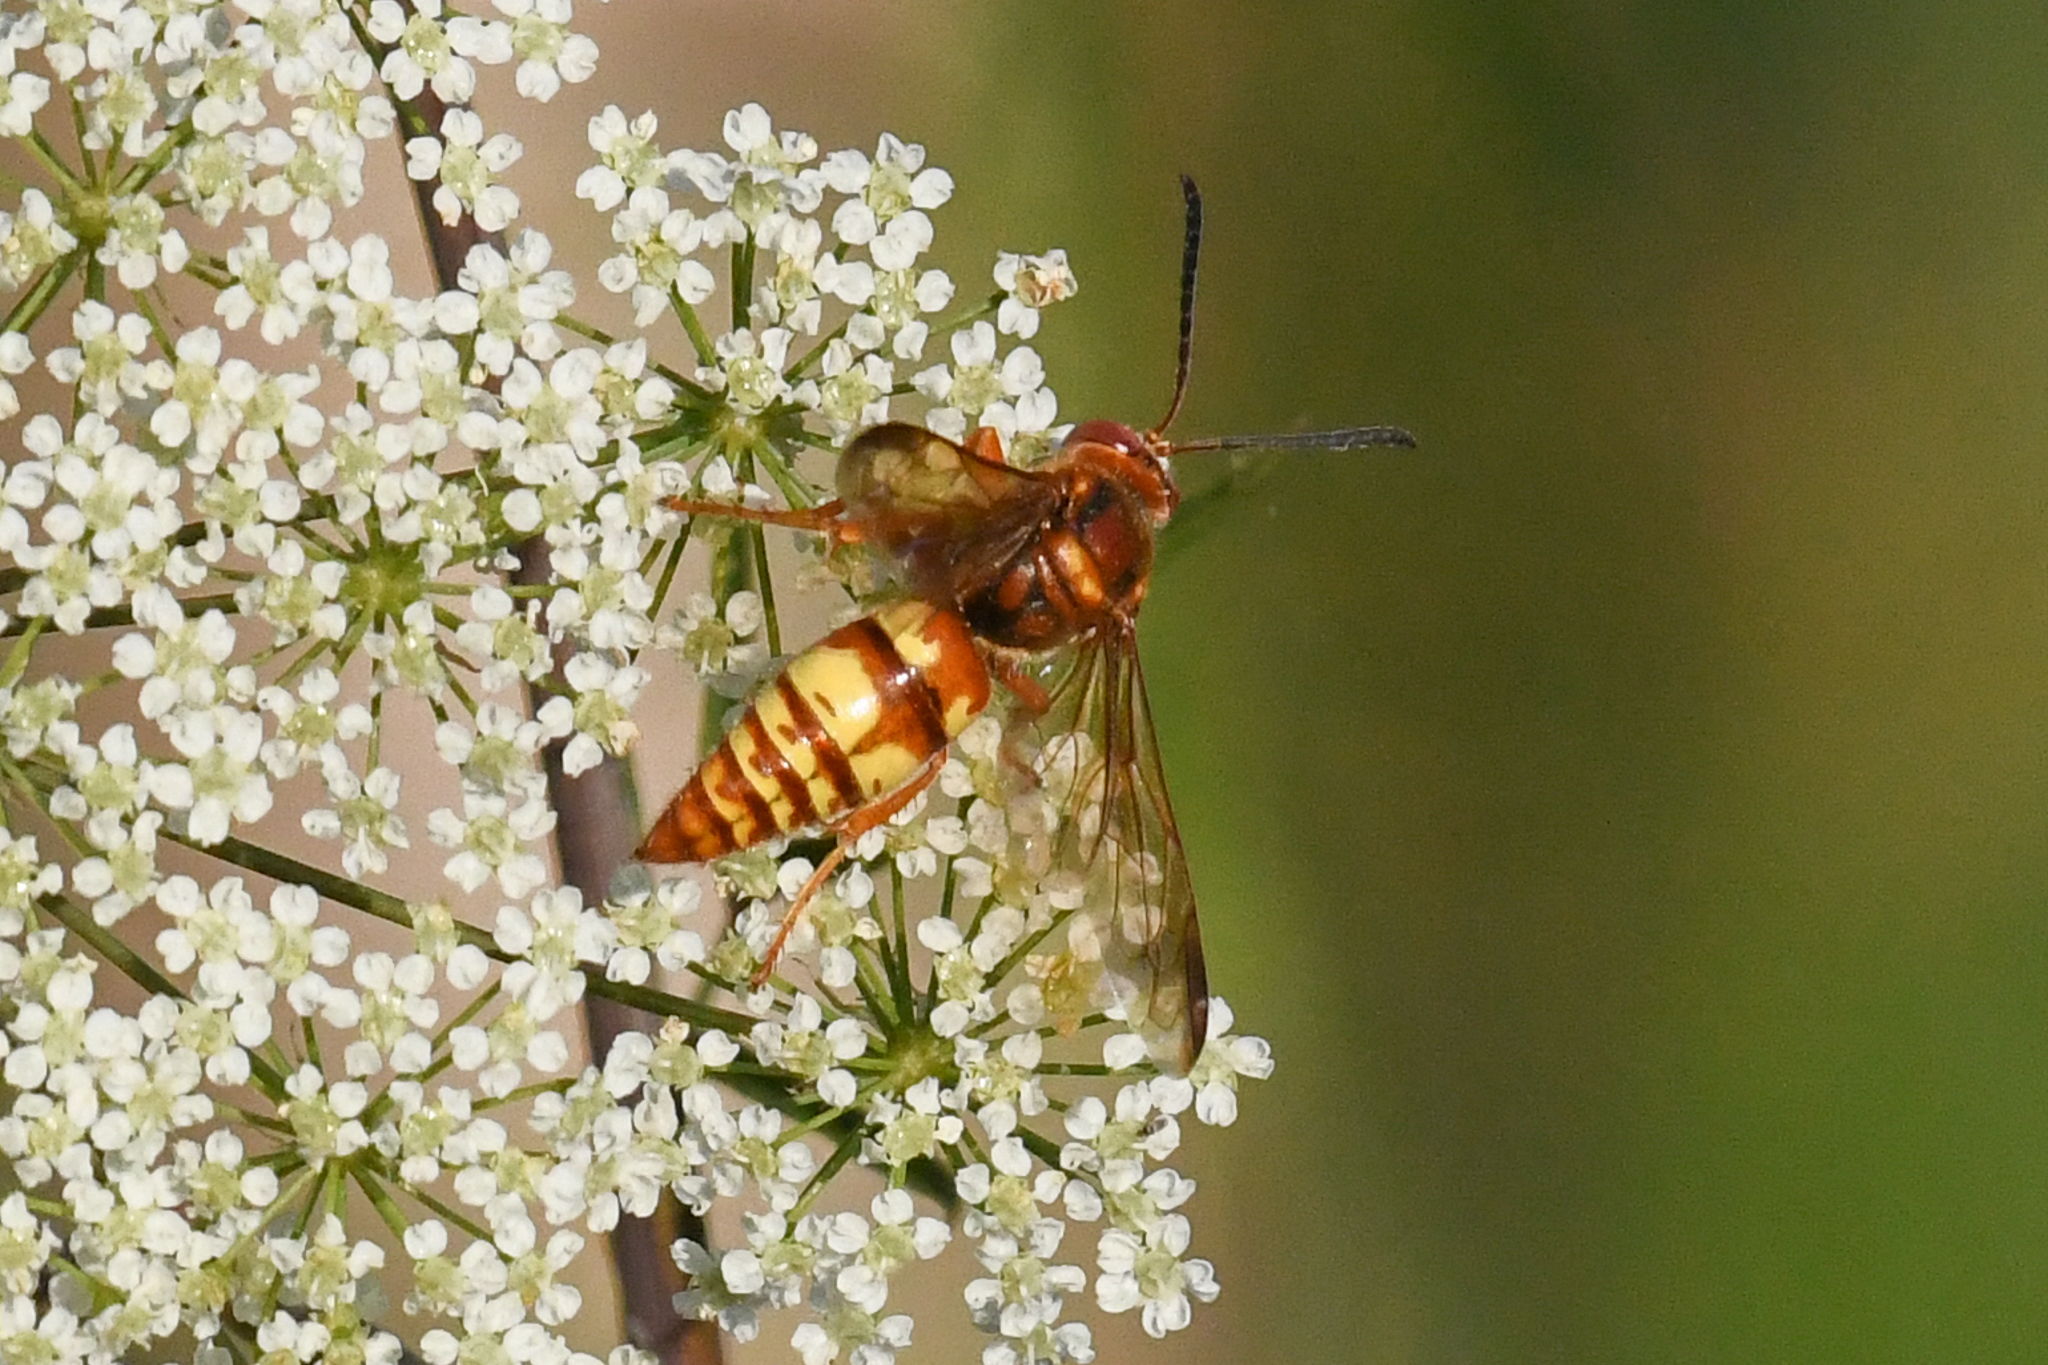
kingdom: Animalia
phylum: Arthropoda
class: Insecta
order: Hymenoptera
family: Crabronidae
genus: Sphecius
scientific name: Sphecius grandis
